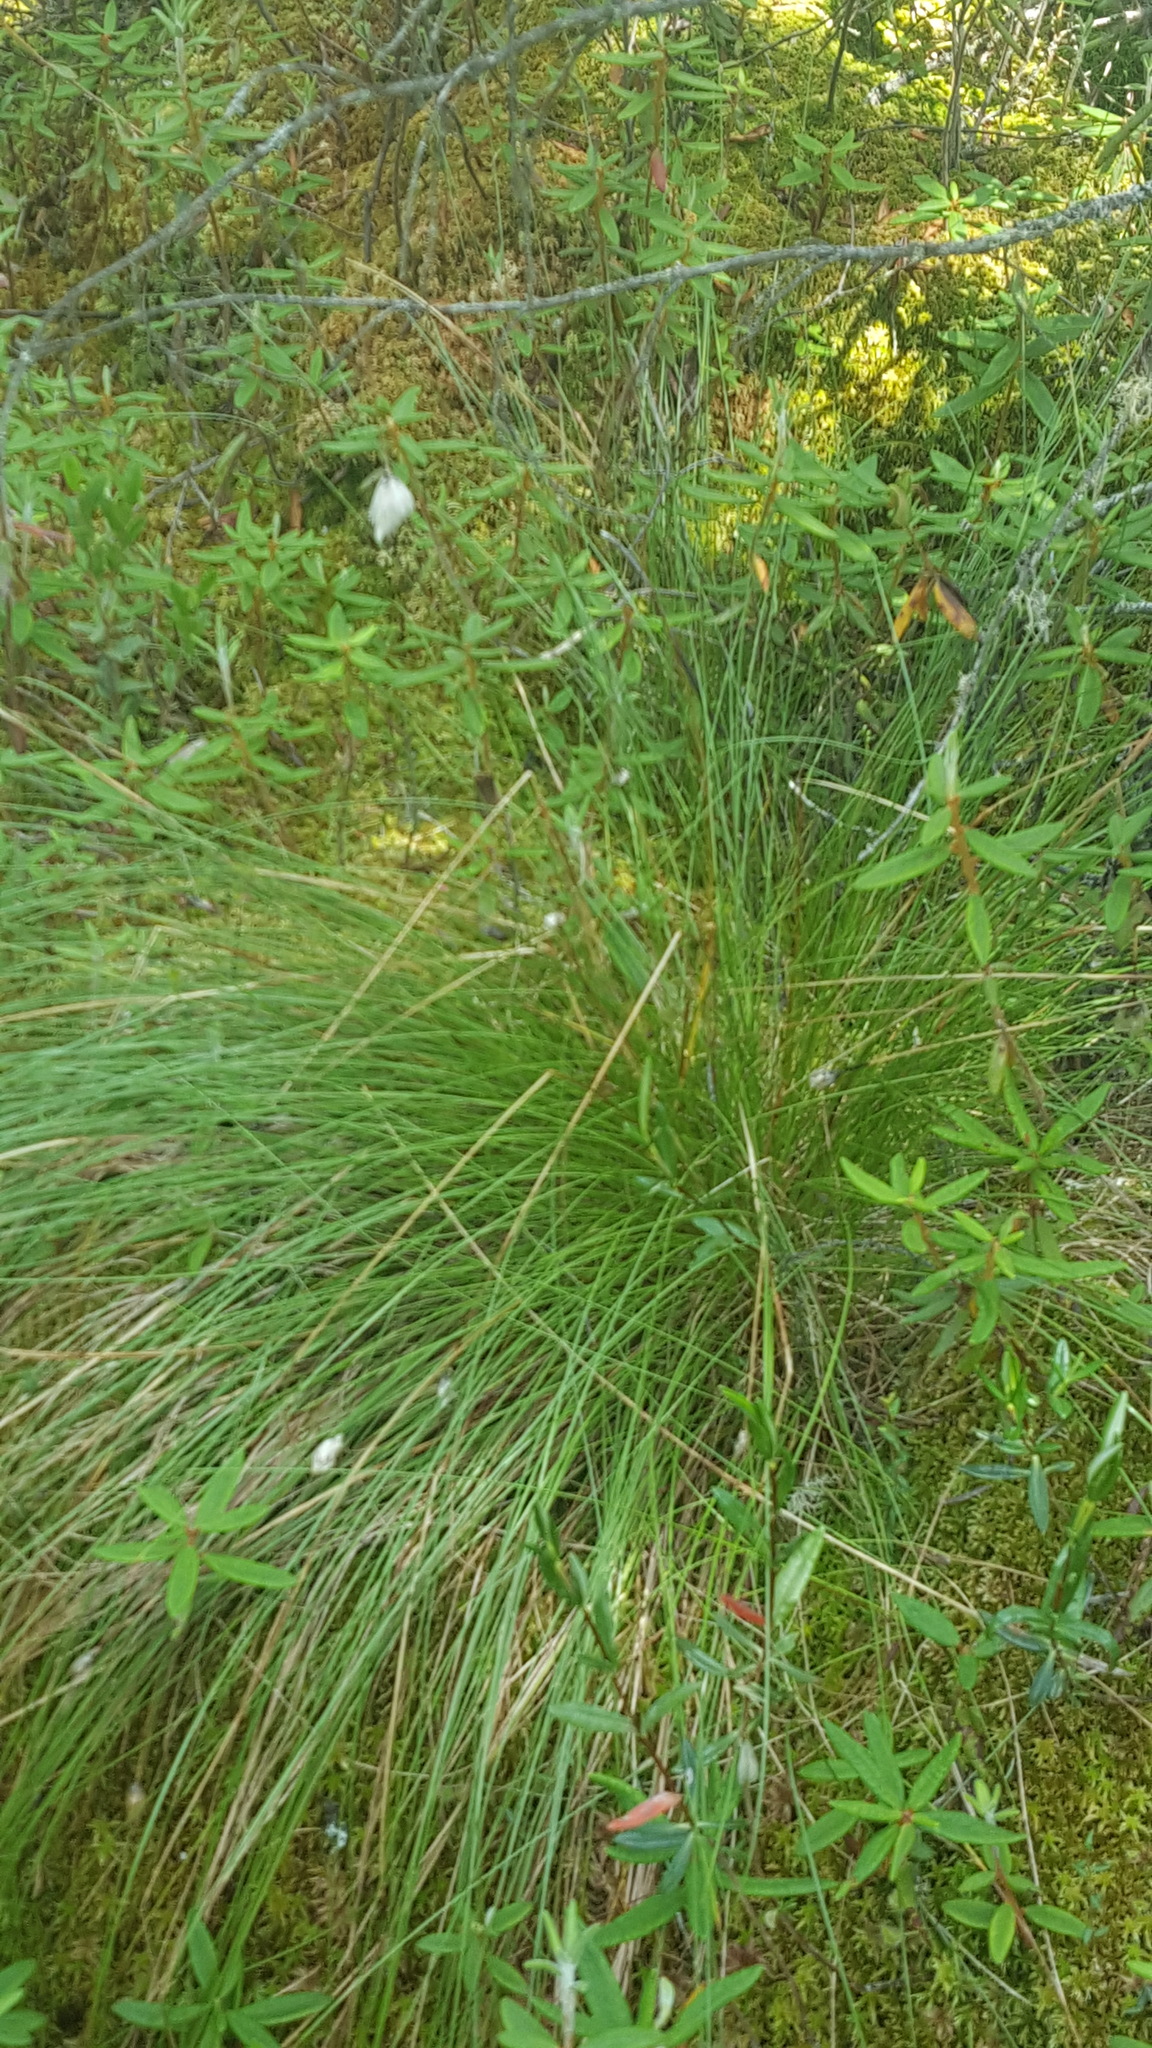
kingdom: Plantae
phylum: Tracheophyta
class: Liliopsida
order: Poales
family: Cyperaceae
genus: Eriophorum
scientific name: Eriophorum vaginatum
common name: Hare's-tail cottongrass
